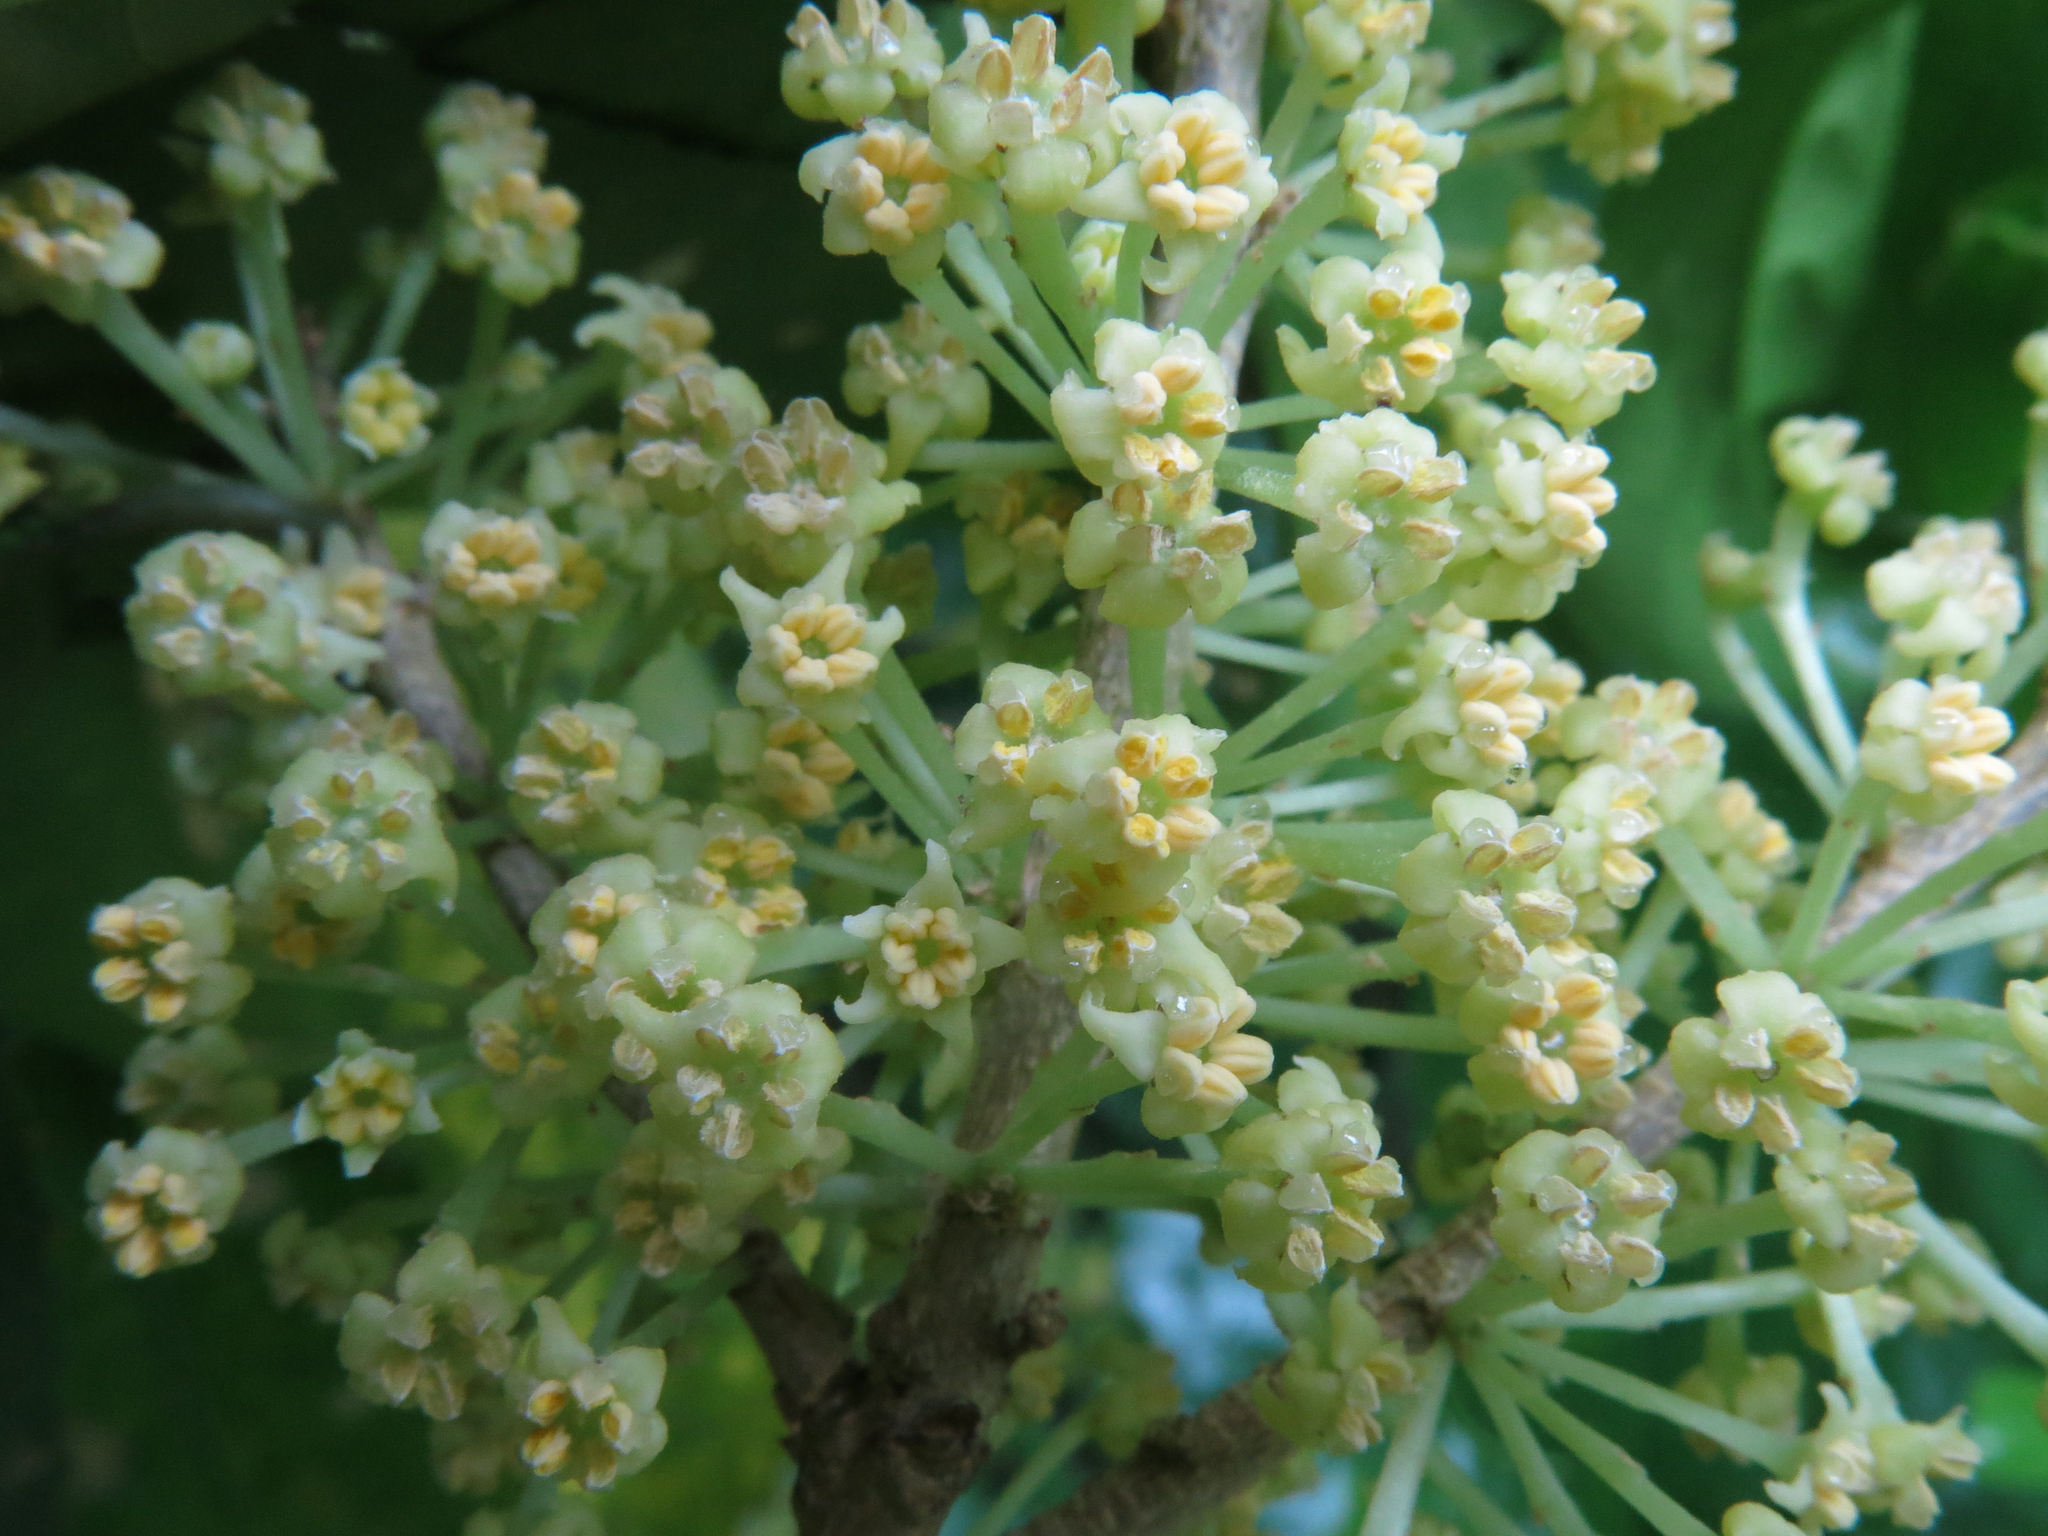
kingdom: Plantae
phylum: Tracheophyta
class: Magnoliopsida
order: Malpighiales
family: Violaceae
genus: Melicytus
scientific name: Melicytus ramiflorus
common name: Mahoe
